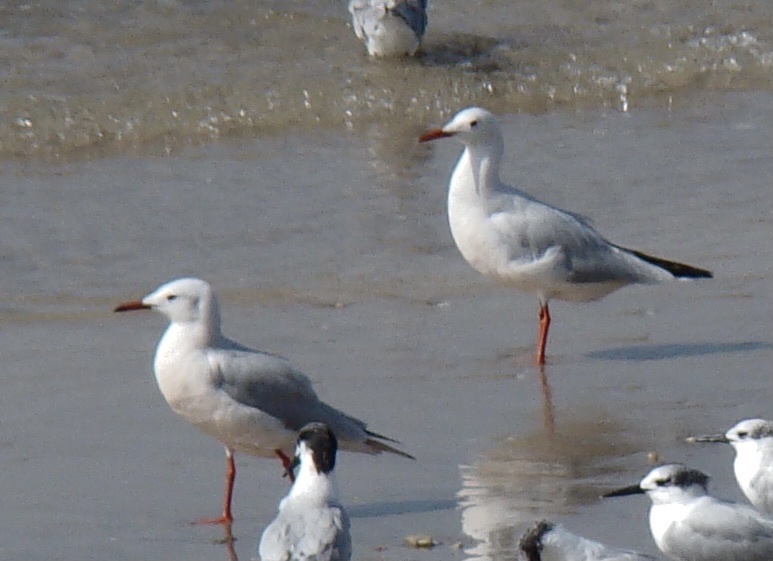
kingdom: Animalia
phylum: Chordata
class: Aves
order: Charadriiformes
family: Laridae
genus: Chroicocephalus
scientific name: Chroicocephalus genei
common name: Slender-billed gull
